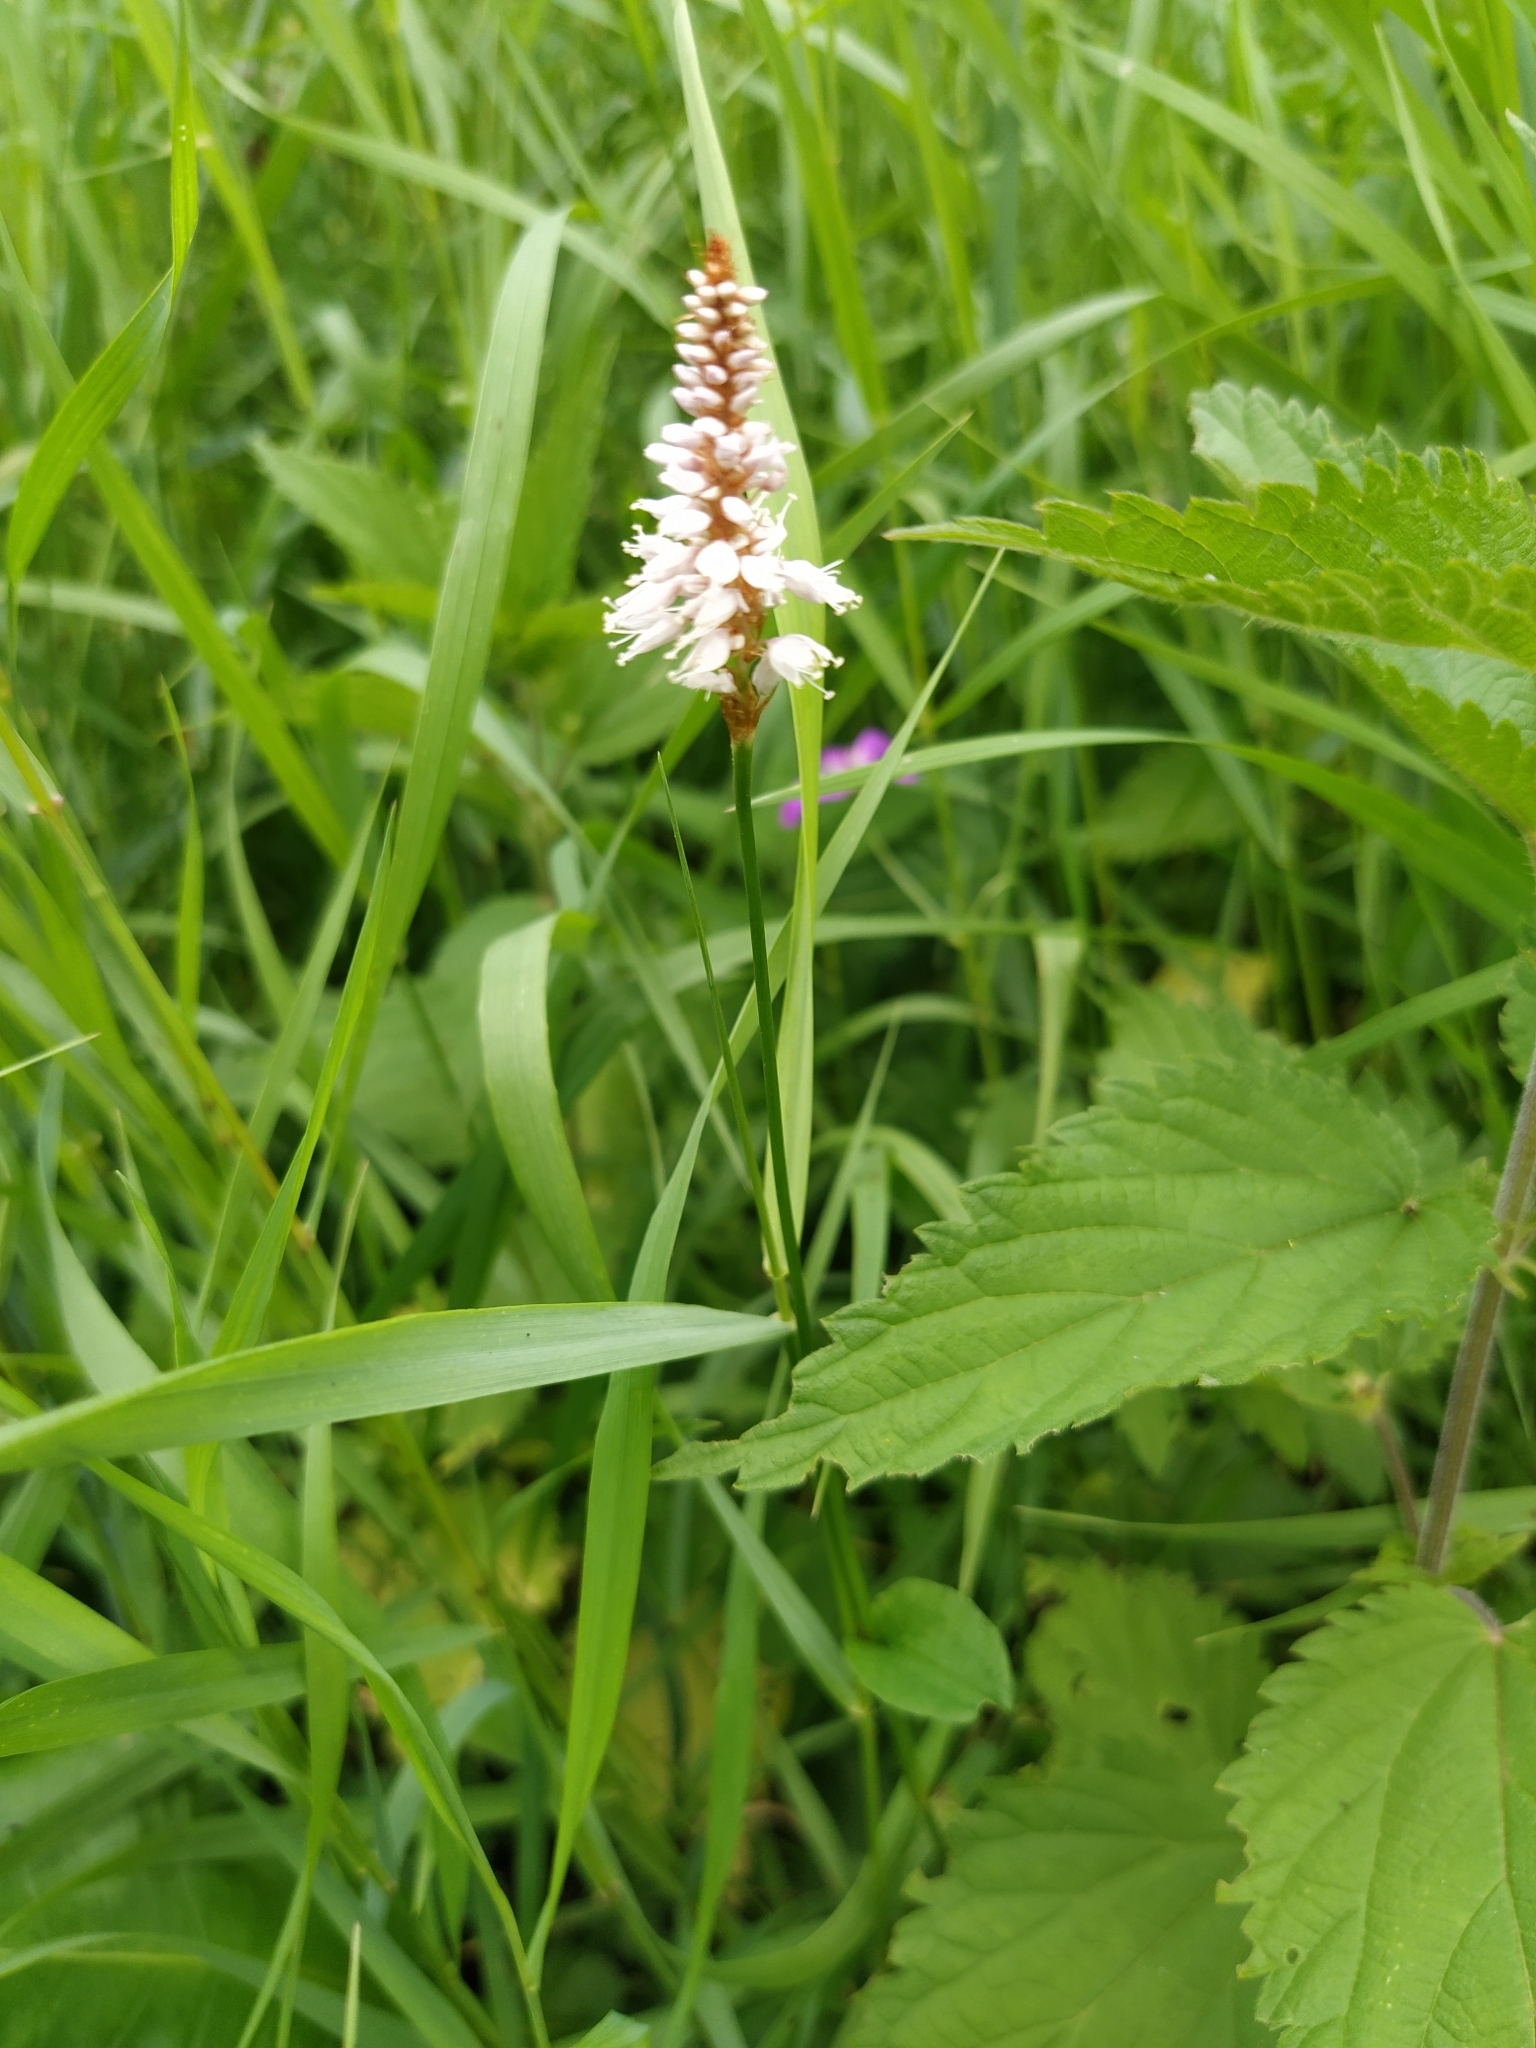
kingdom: Plantae
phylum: Tracheophyta
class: Magnoliopsida
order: Caryophyllales
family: Polygonaceae
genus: Bistorta
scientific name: Bistorta officinalis
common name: Common bistort
